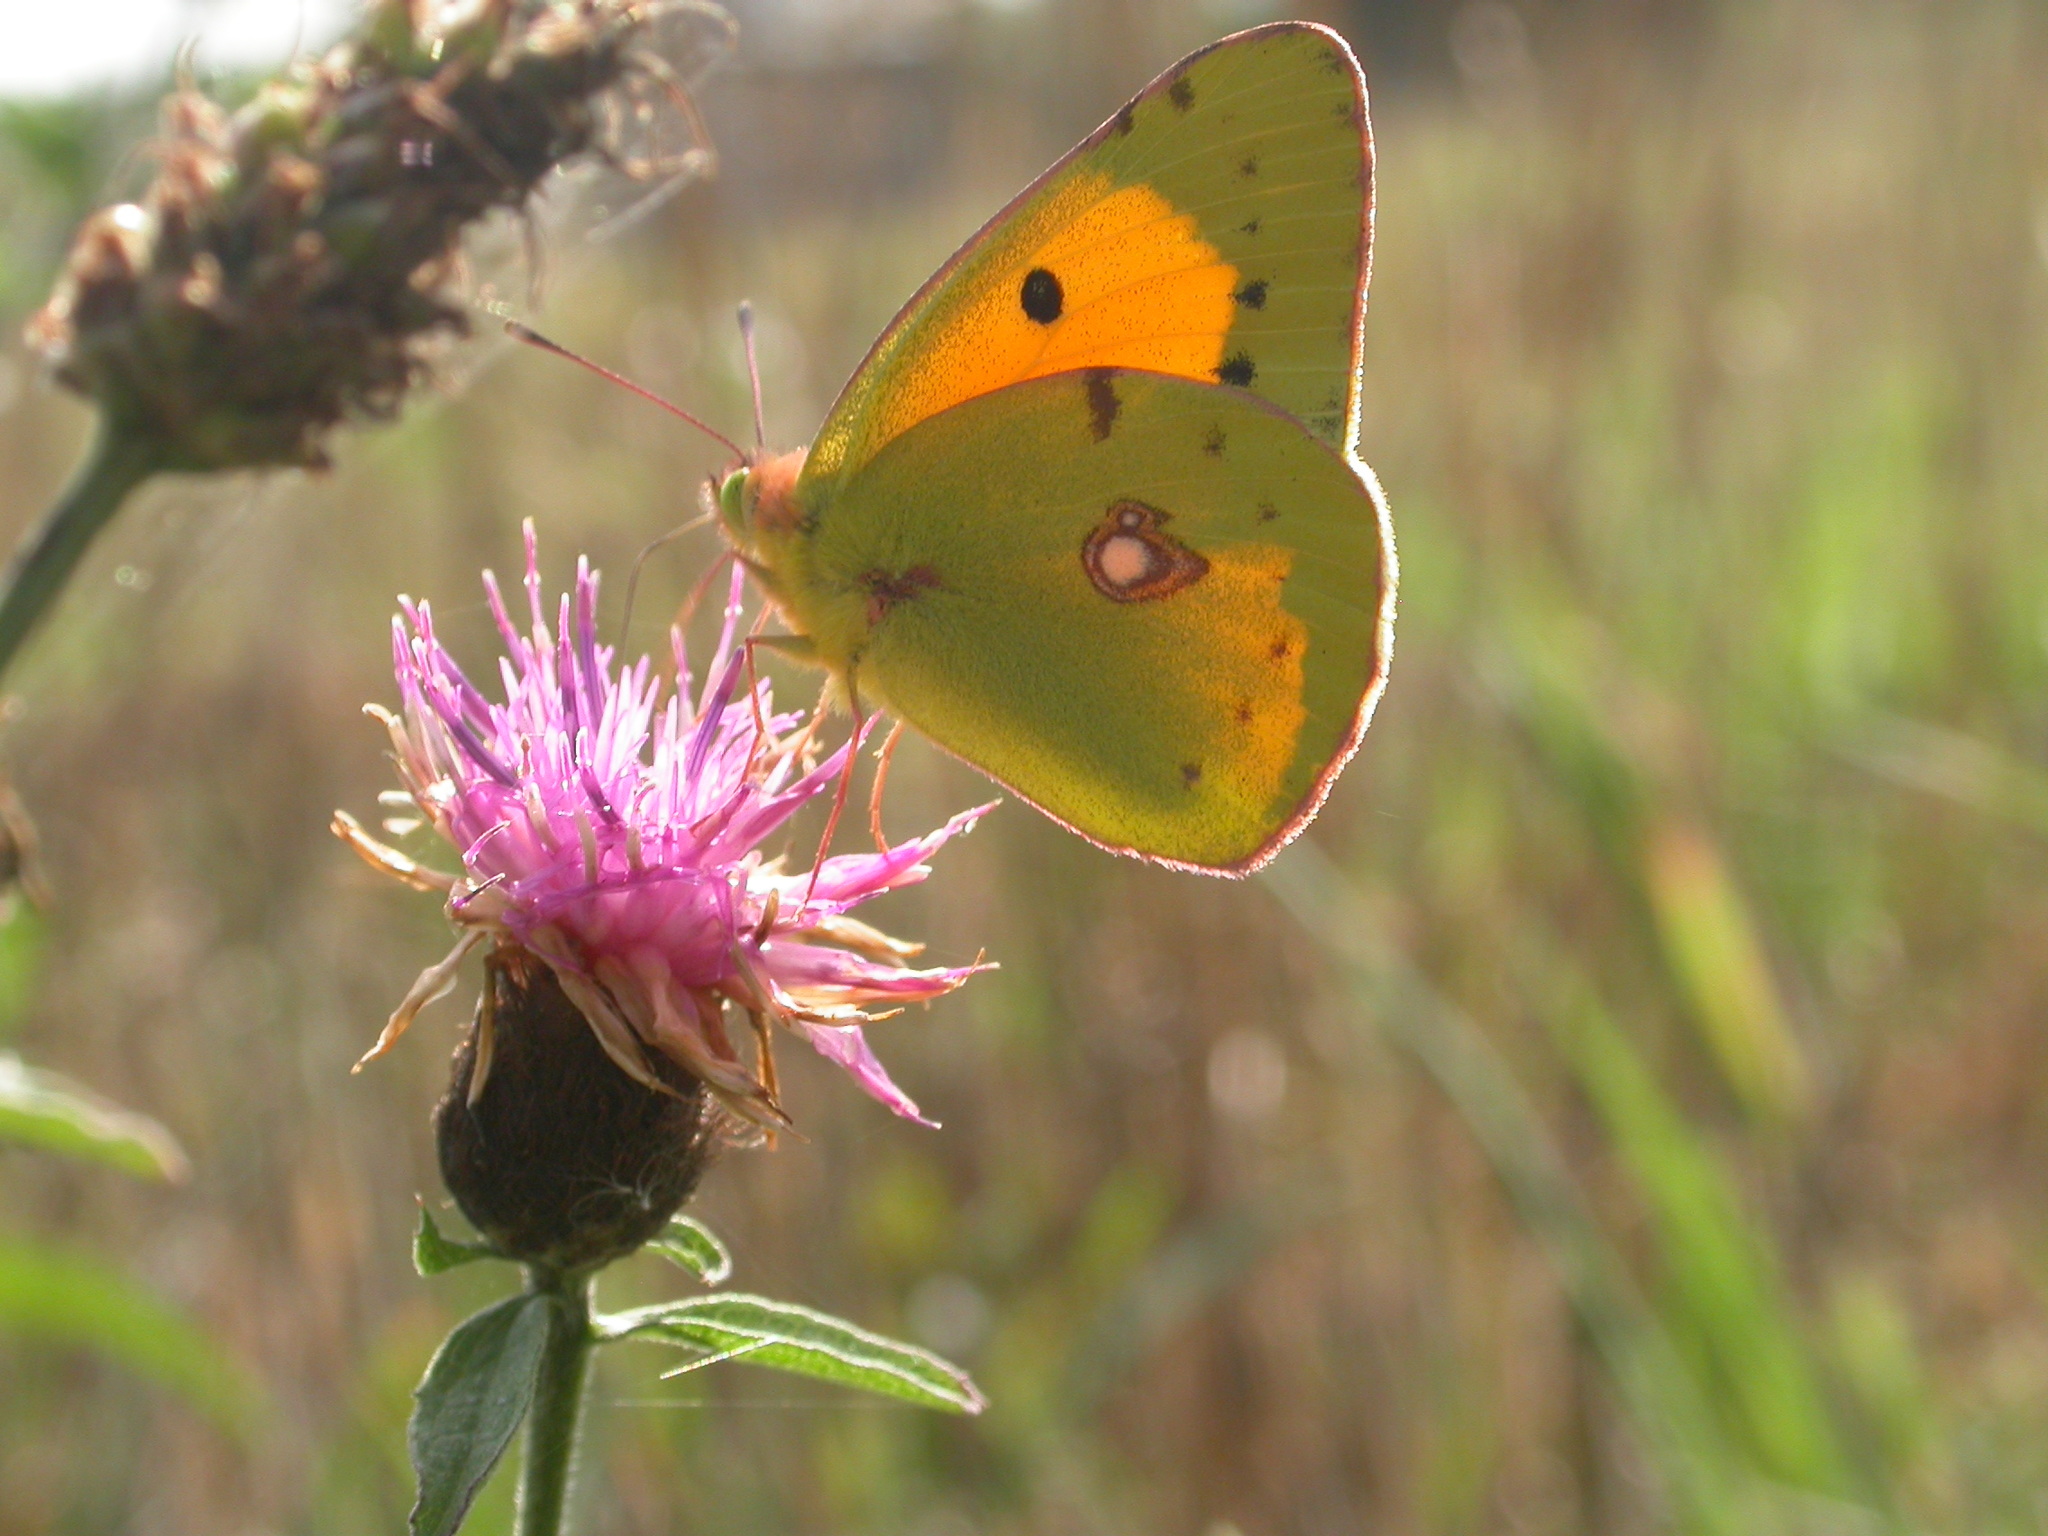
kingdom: Animalia
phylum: Arthropoda
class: Insecta
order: Lepidoptera
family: Pieridae
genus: Colias
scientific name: Colias croceus
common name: Clouded yellow
